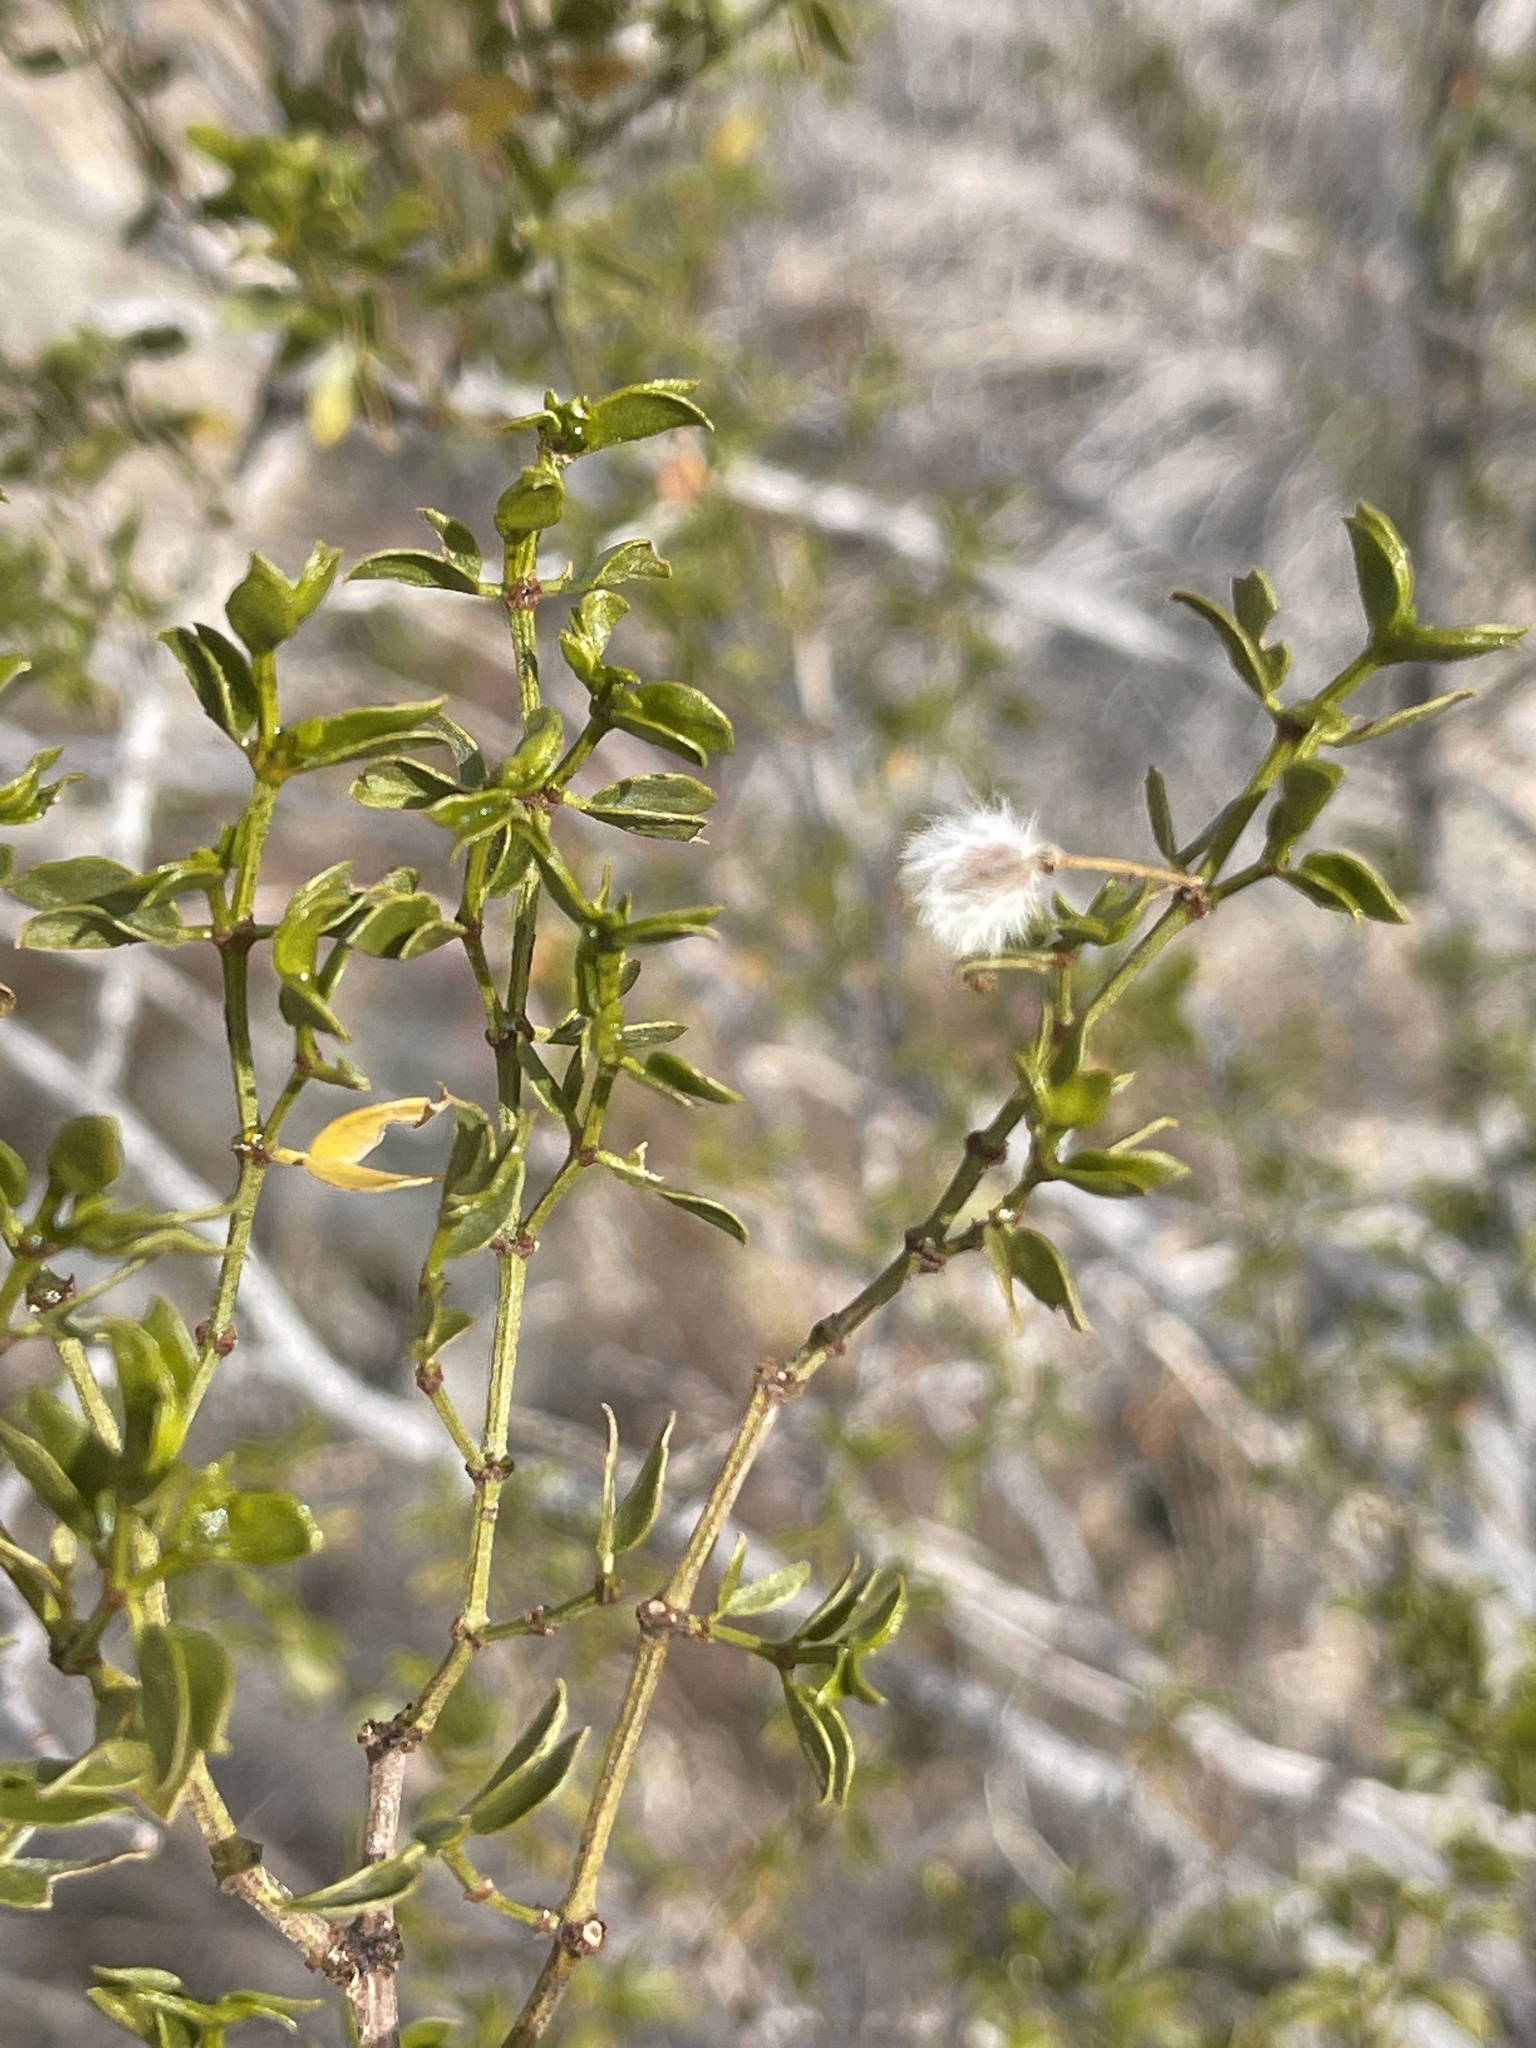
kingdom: Plantae
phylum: Tracheophyta
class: Magnoliopsida
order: Zygophyllales
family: Zygophyllaceae
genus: Larrea
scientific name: Larrea tridentata
